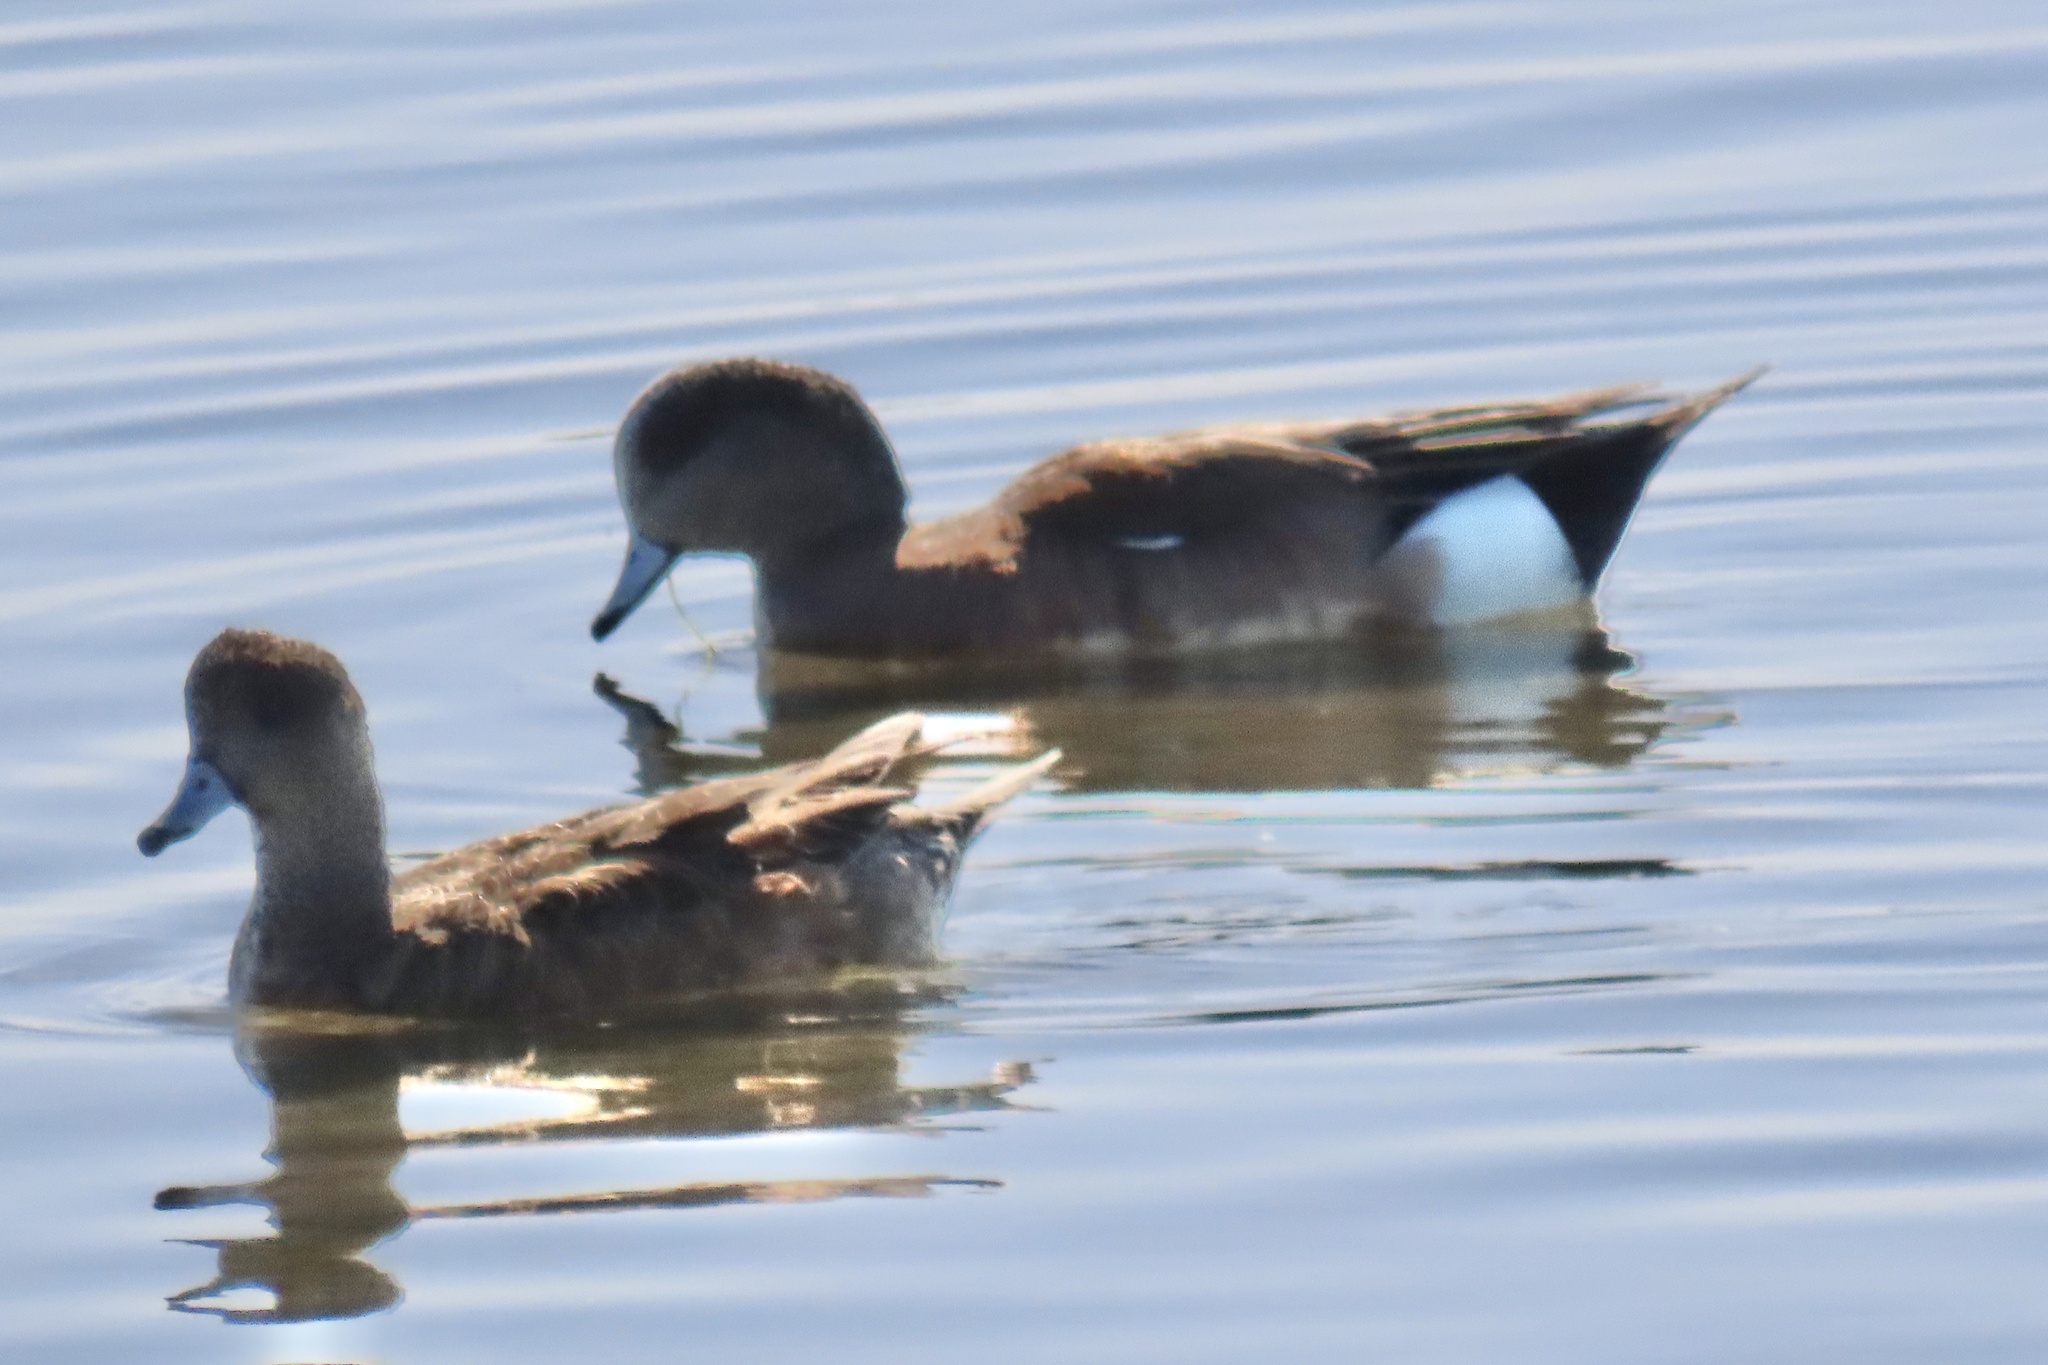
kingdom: Animalia
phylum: Chordata
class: Aves
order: Anseriformes
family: Anatidae
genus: Mareca
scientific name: Mareca americana
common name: American wigeon
